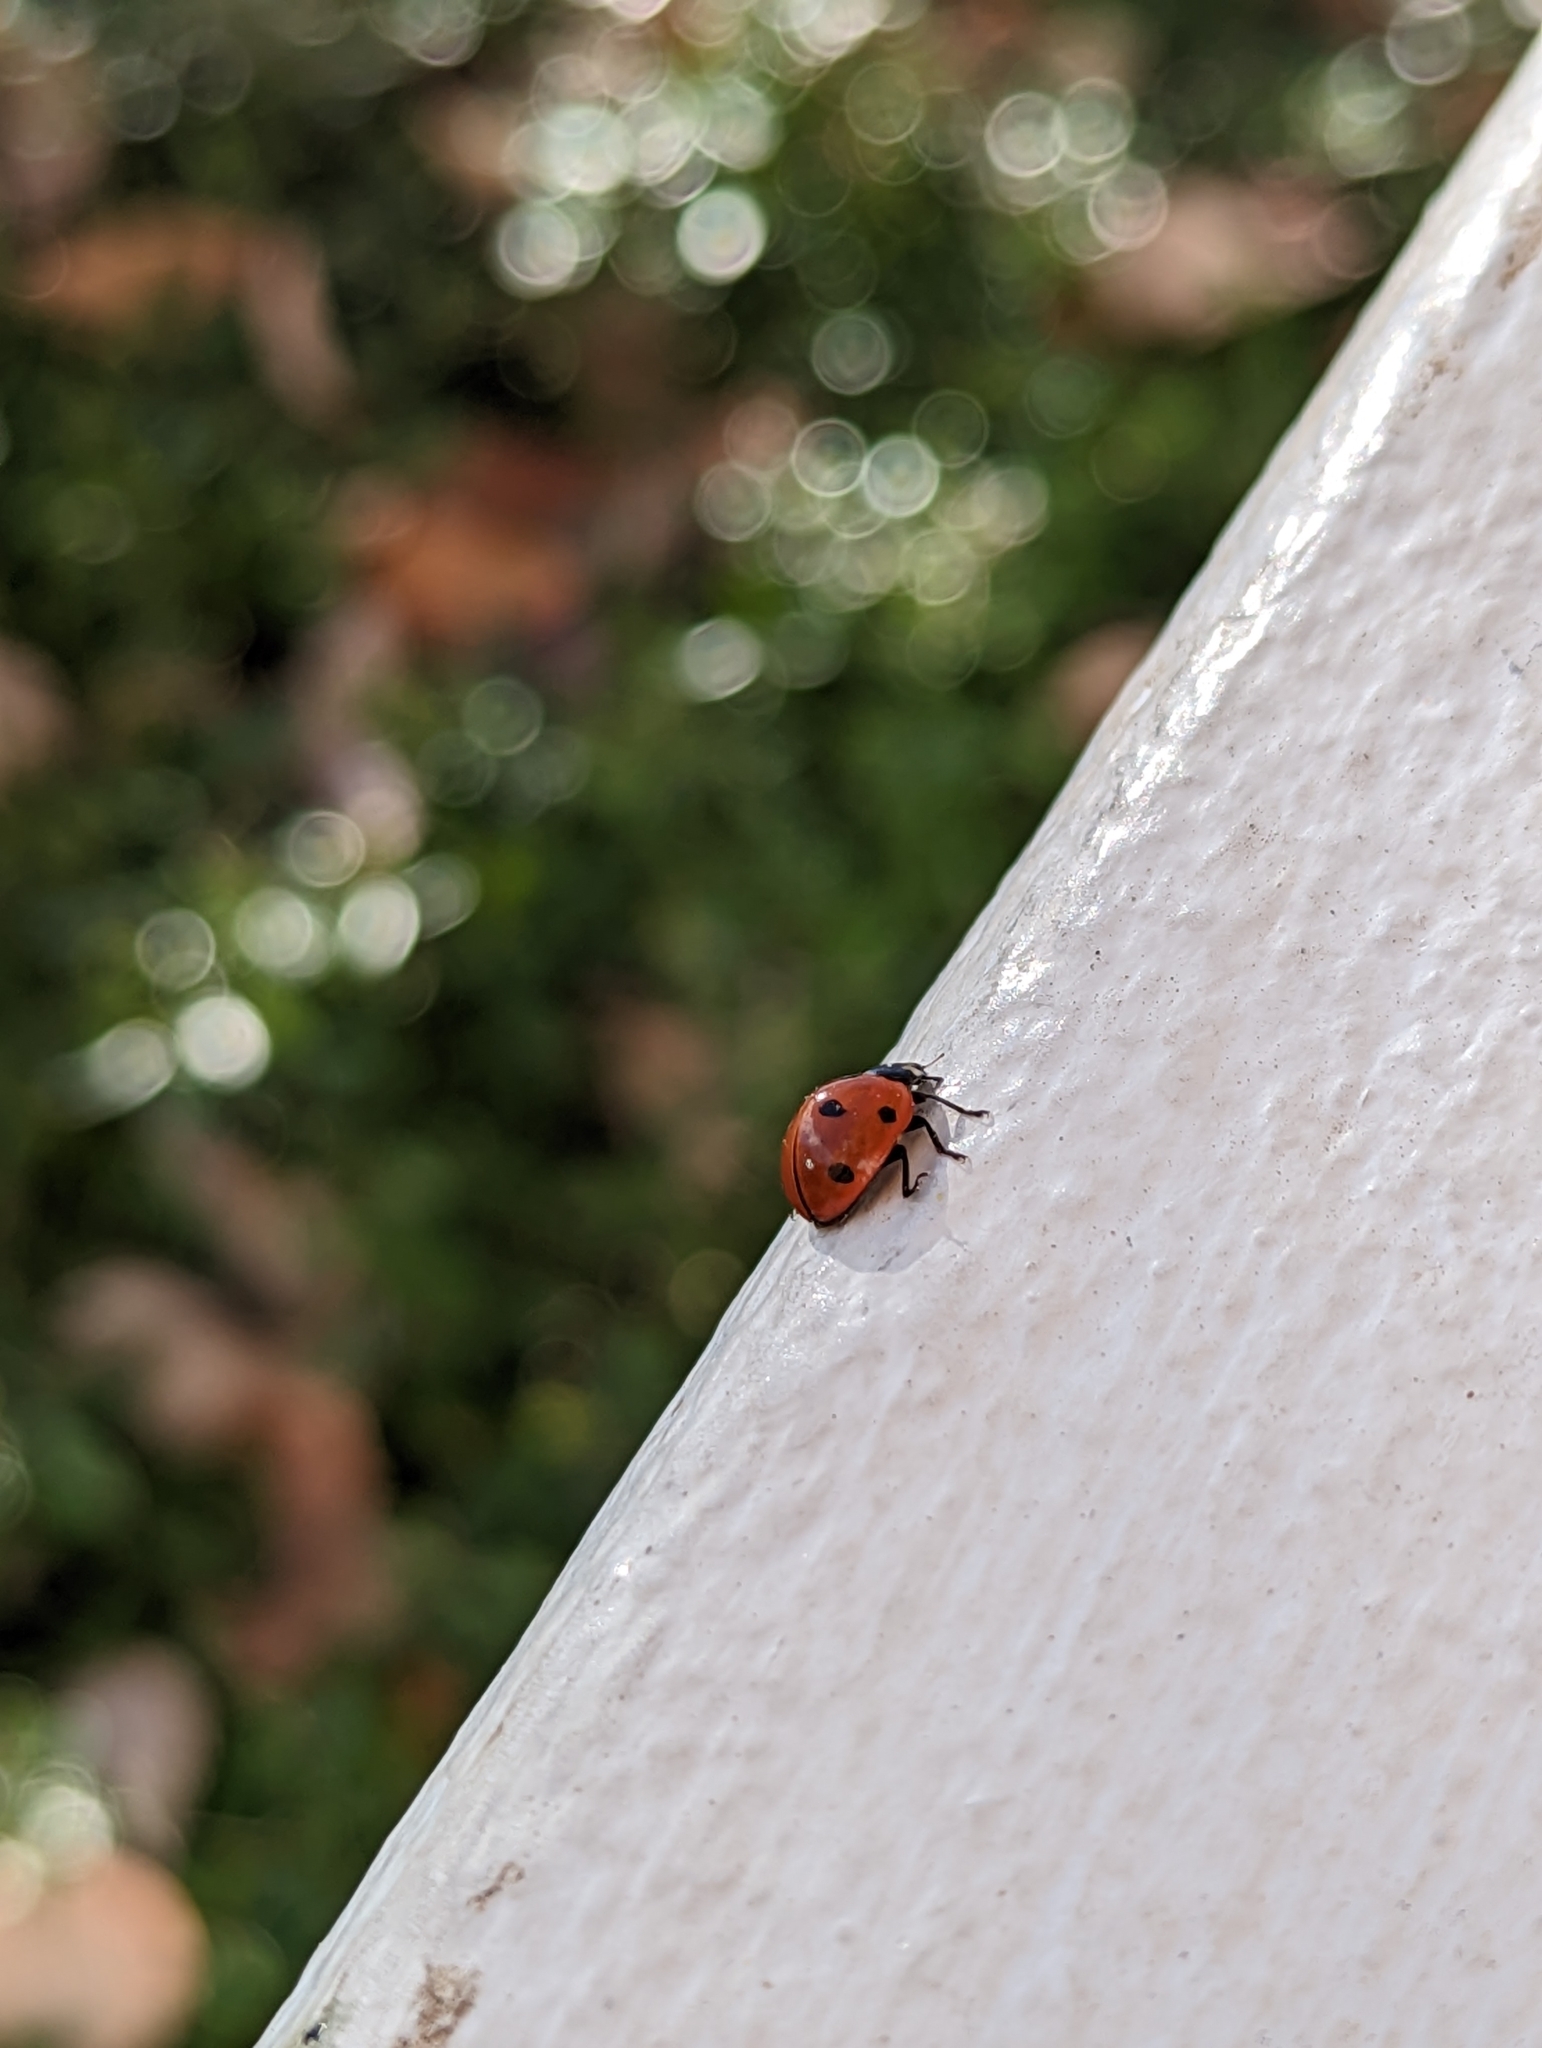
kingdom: Animalia
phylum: Arthropoda
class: Insecta
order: Coleoptera
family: Coccinellidae
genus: Coccinella
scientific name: Coccinella septempunctata
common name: Sevenspotted lady beetle
